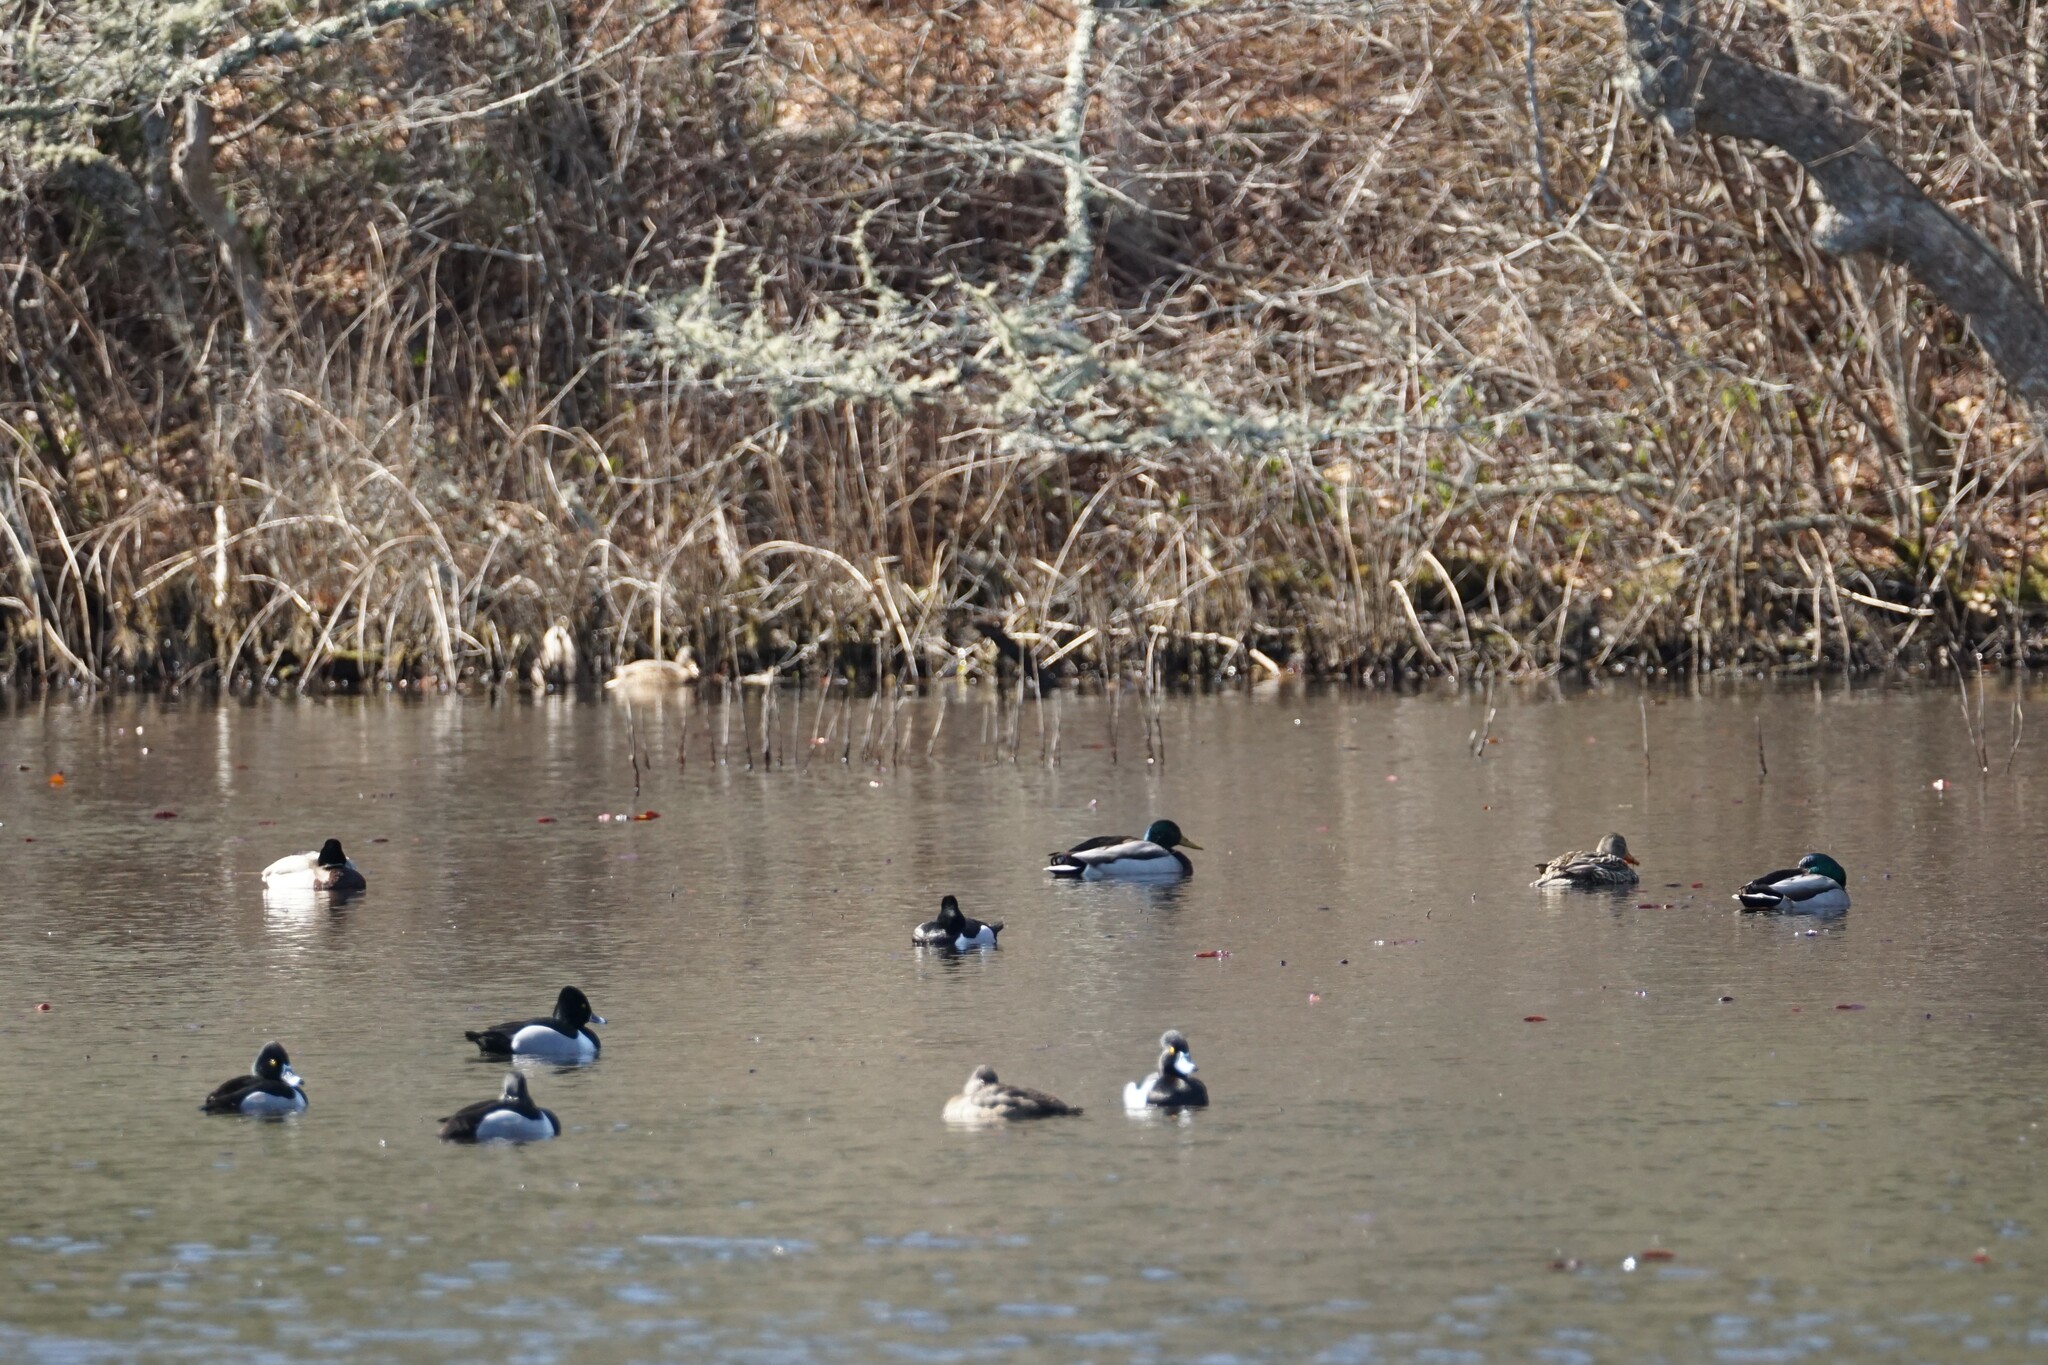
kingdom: Animalia
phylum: Chordata
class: Aves
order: Anseriformes
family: Anatidae
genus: Anas
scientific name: Anas platyrhynchos
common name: Mallard
